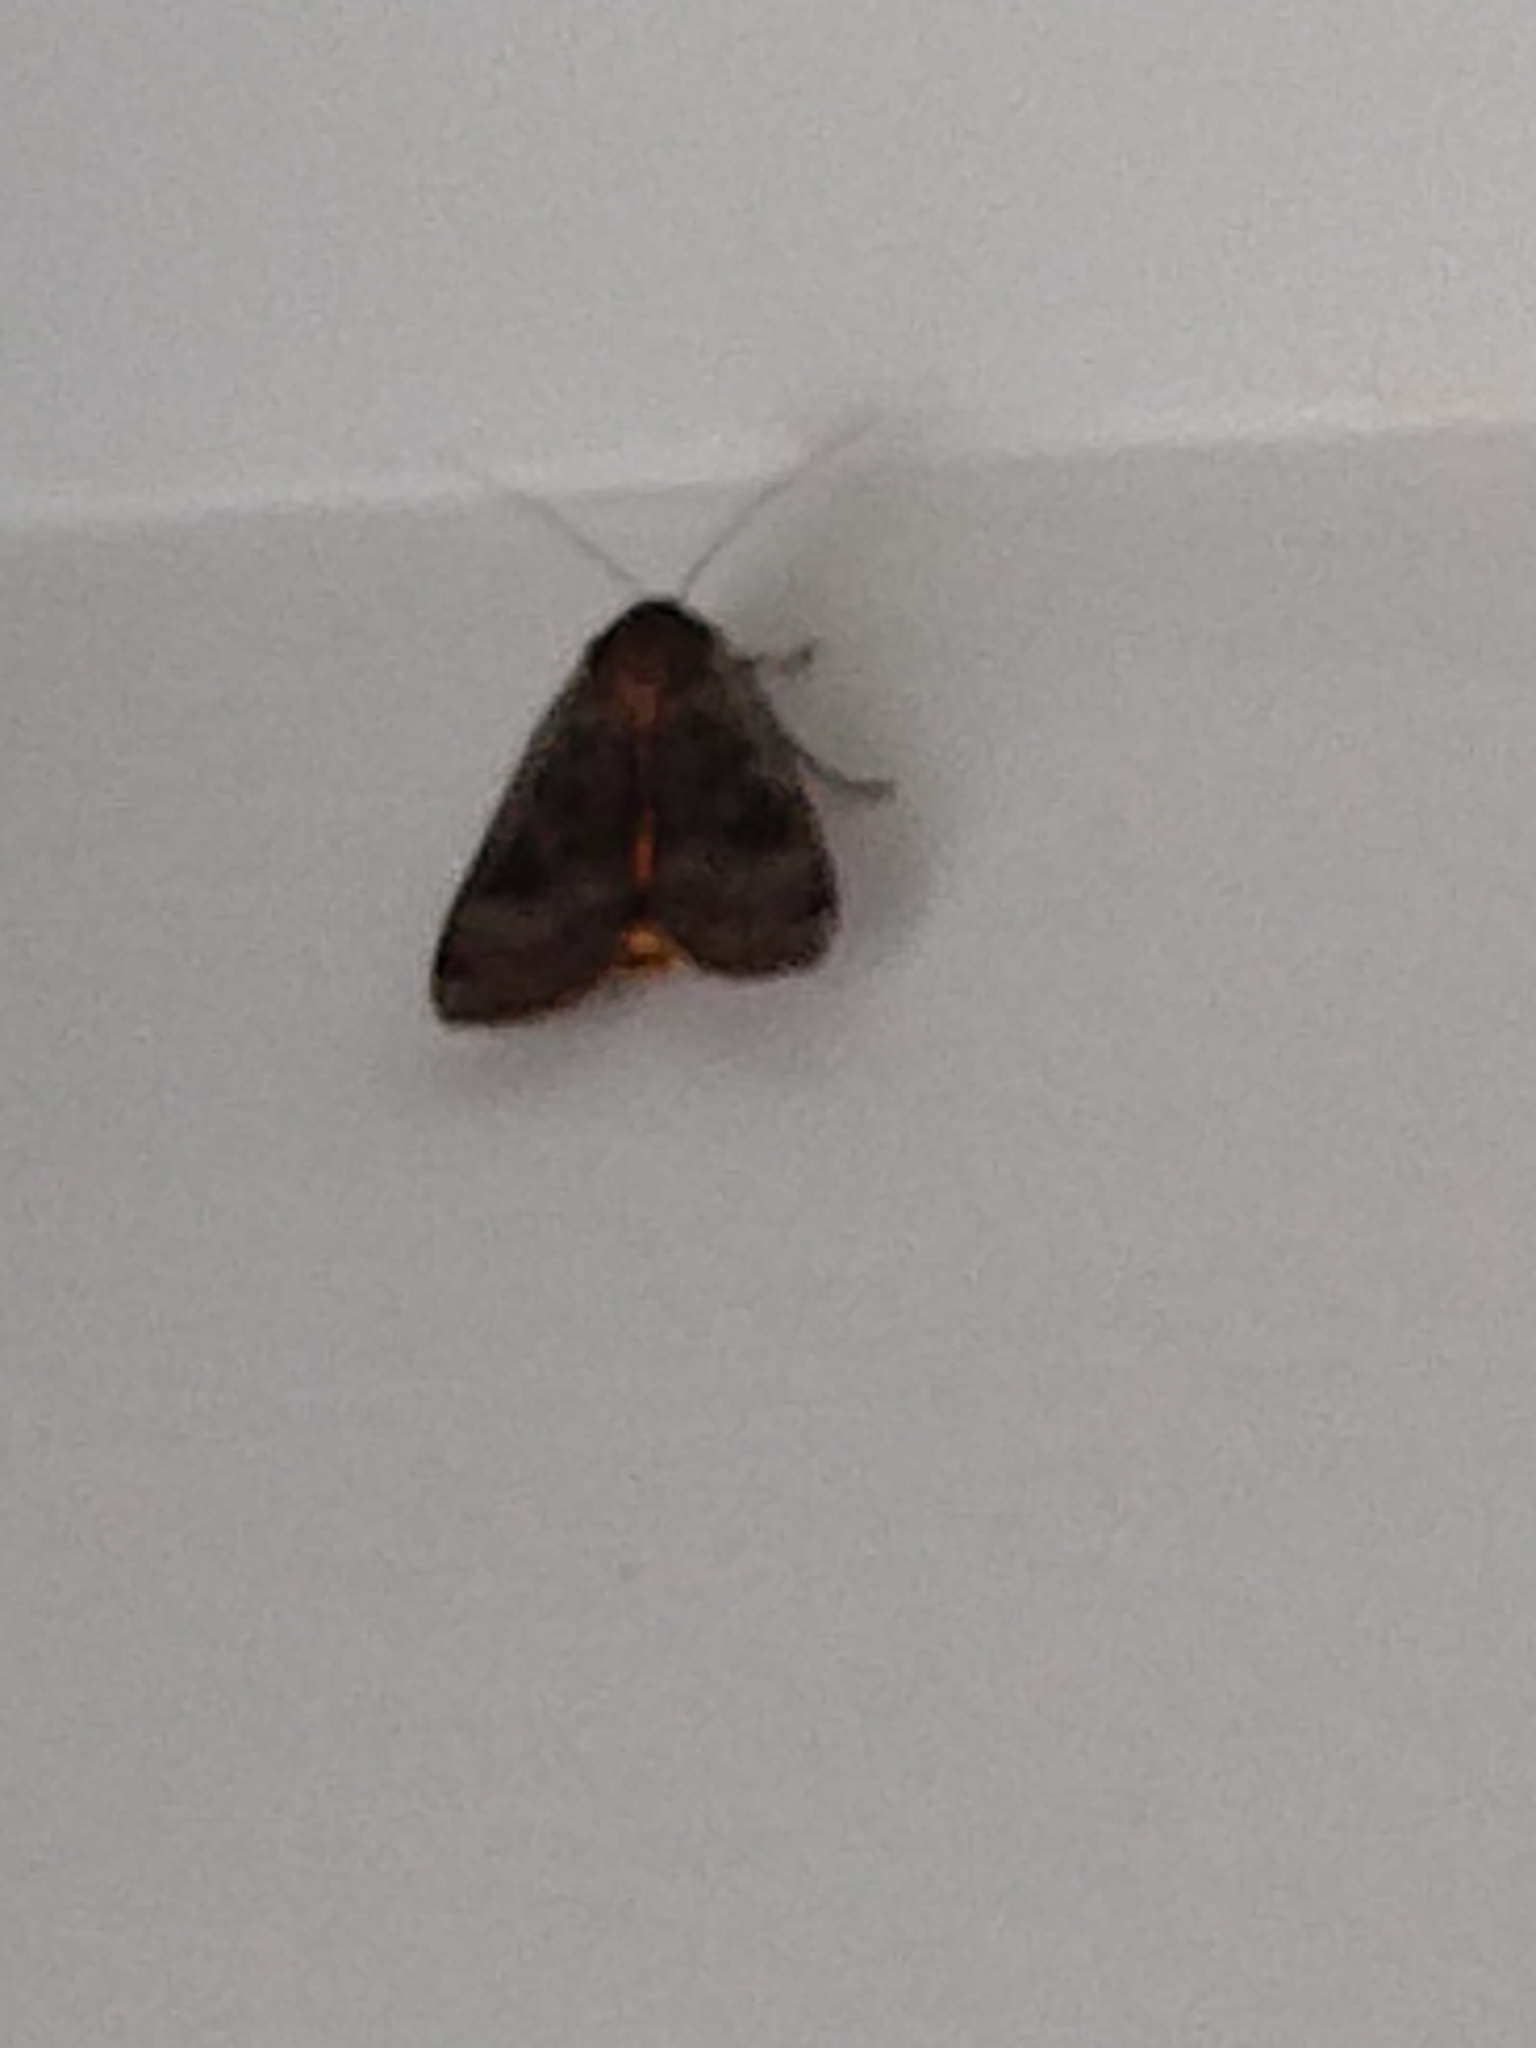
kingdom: Animalia
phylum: Arthropoda
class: Insecta
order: Lepidoptera
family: Noctuidae
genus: Noctua
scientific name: Noctua pronuba
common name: Large yellow underwing
